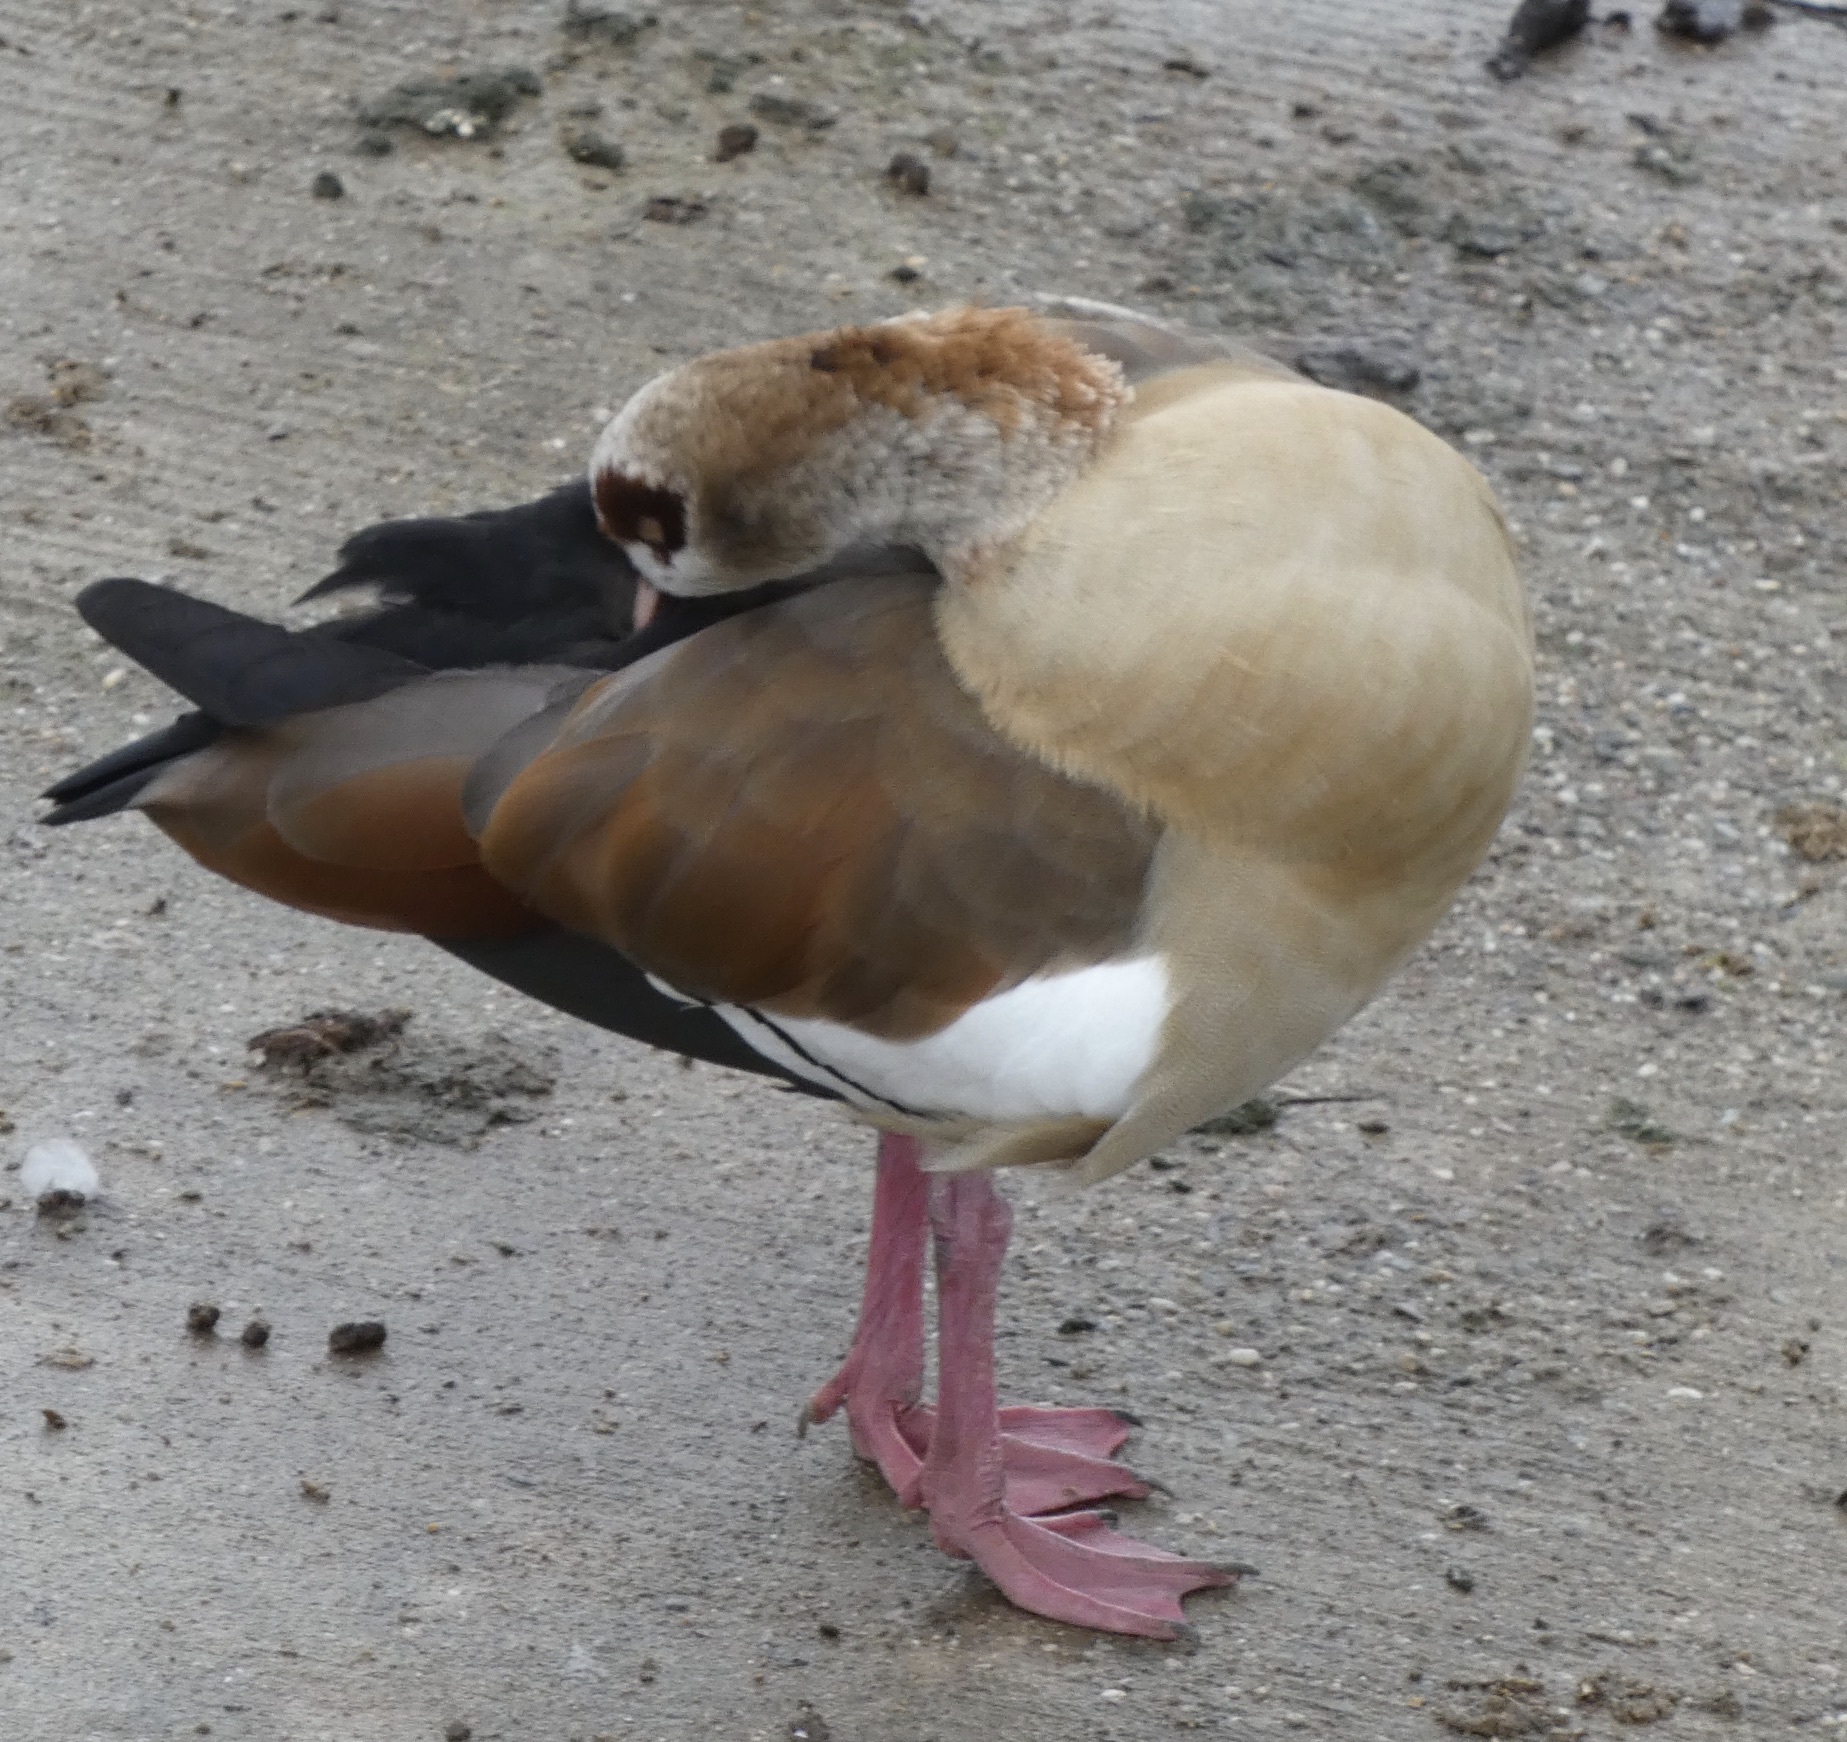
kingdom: Animalia
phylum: Chordata
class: Aves
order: Anseriformes
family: Anatidae
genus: Alopochen
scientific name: Alopochen aegyptiaca
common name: Egyptian goose
